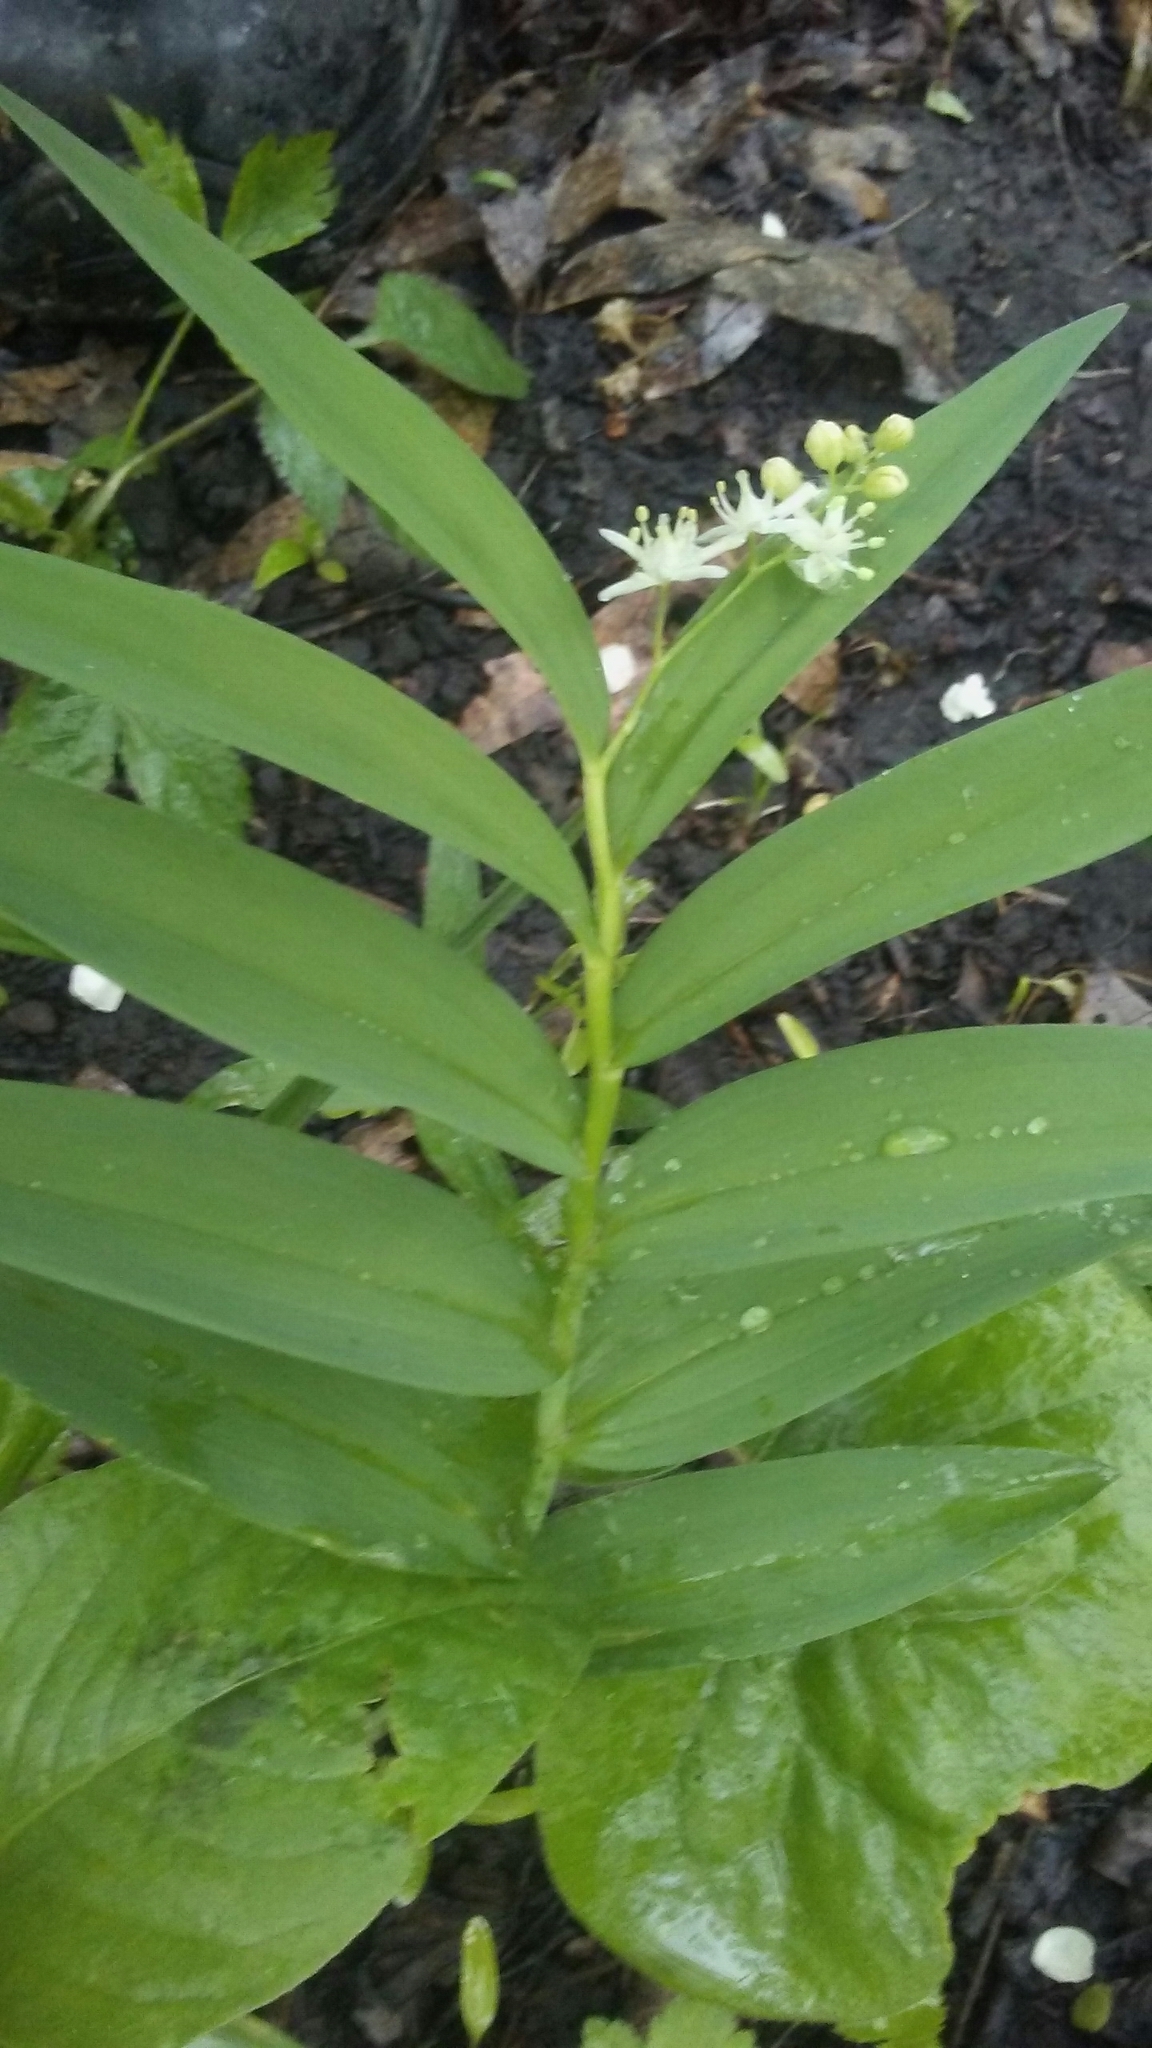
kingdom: Plantae
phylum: Tracheophyta
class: Liliopsida
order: Asparagales
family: Asparagaceae
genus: Maianthemum
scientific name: Maianthemum stellatum
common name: Little false solomon's seal
